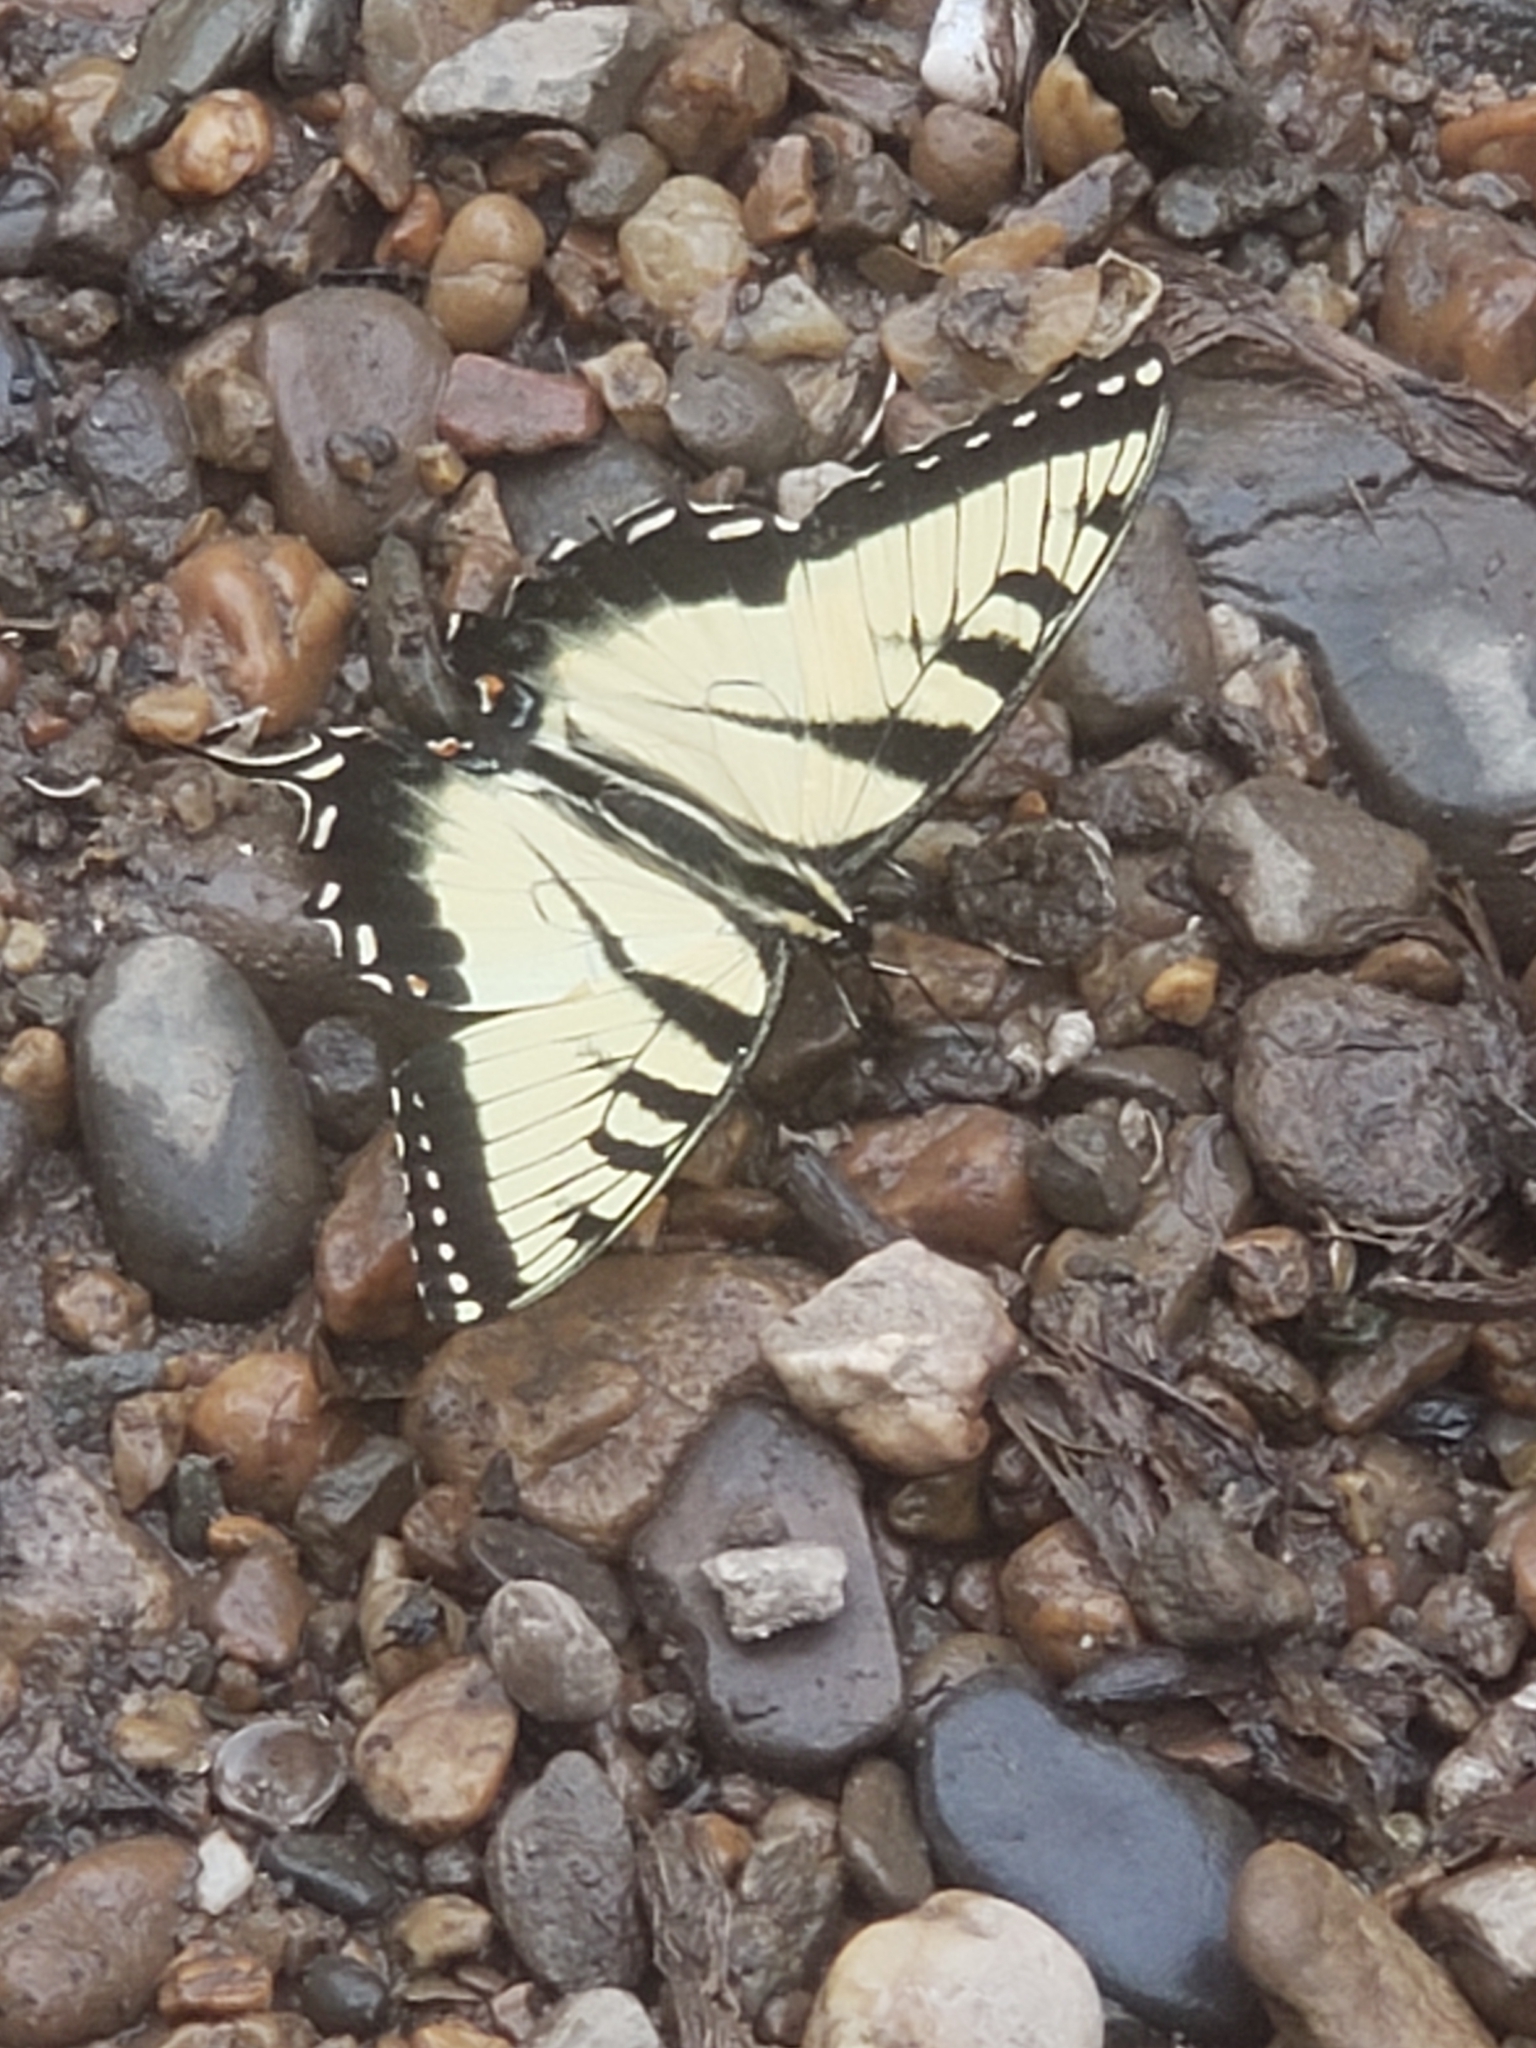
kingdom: Animalia
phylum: Arthropoda
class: Insecta
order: Lepidoptera
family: Papilionidae
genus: Papilio
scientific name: Papilio glaucus
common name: Tiger swallowtail
